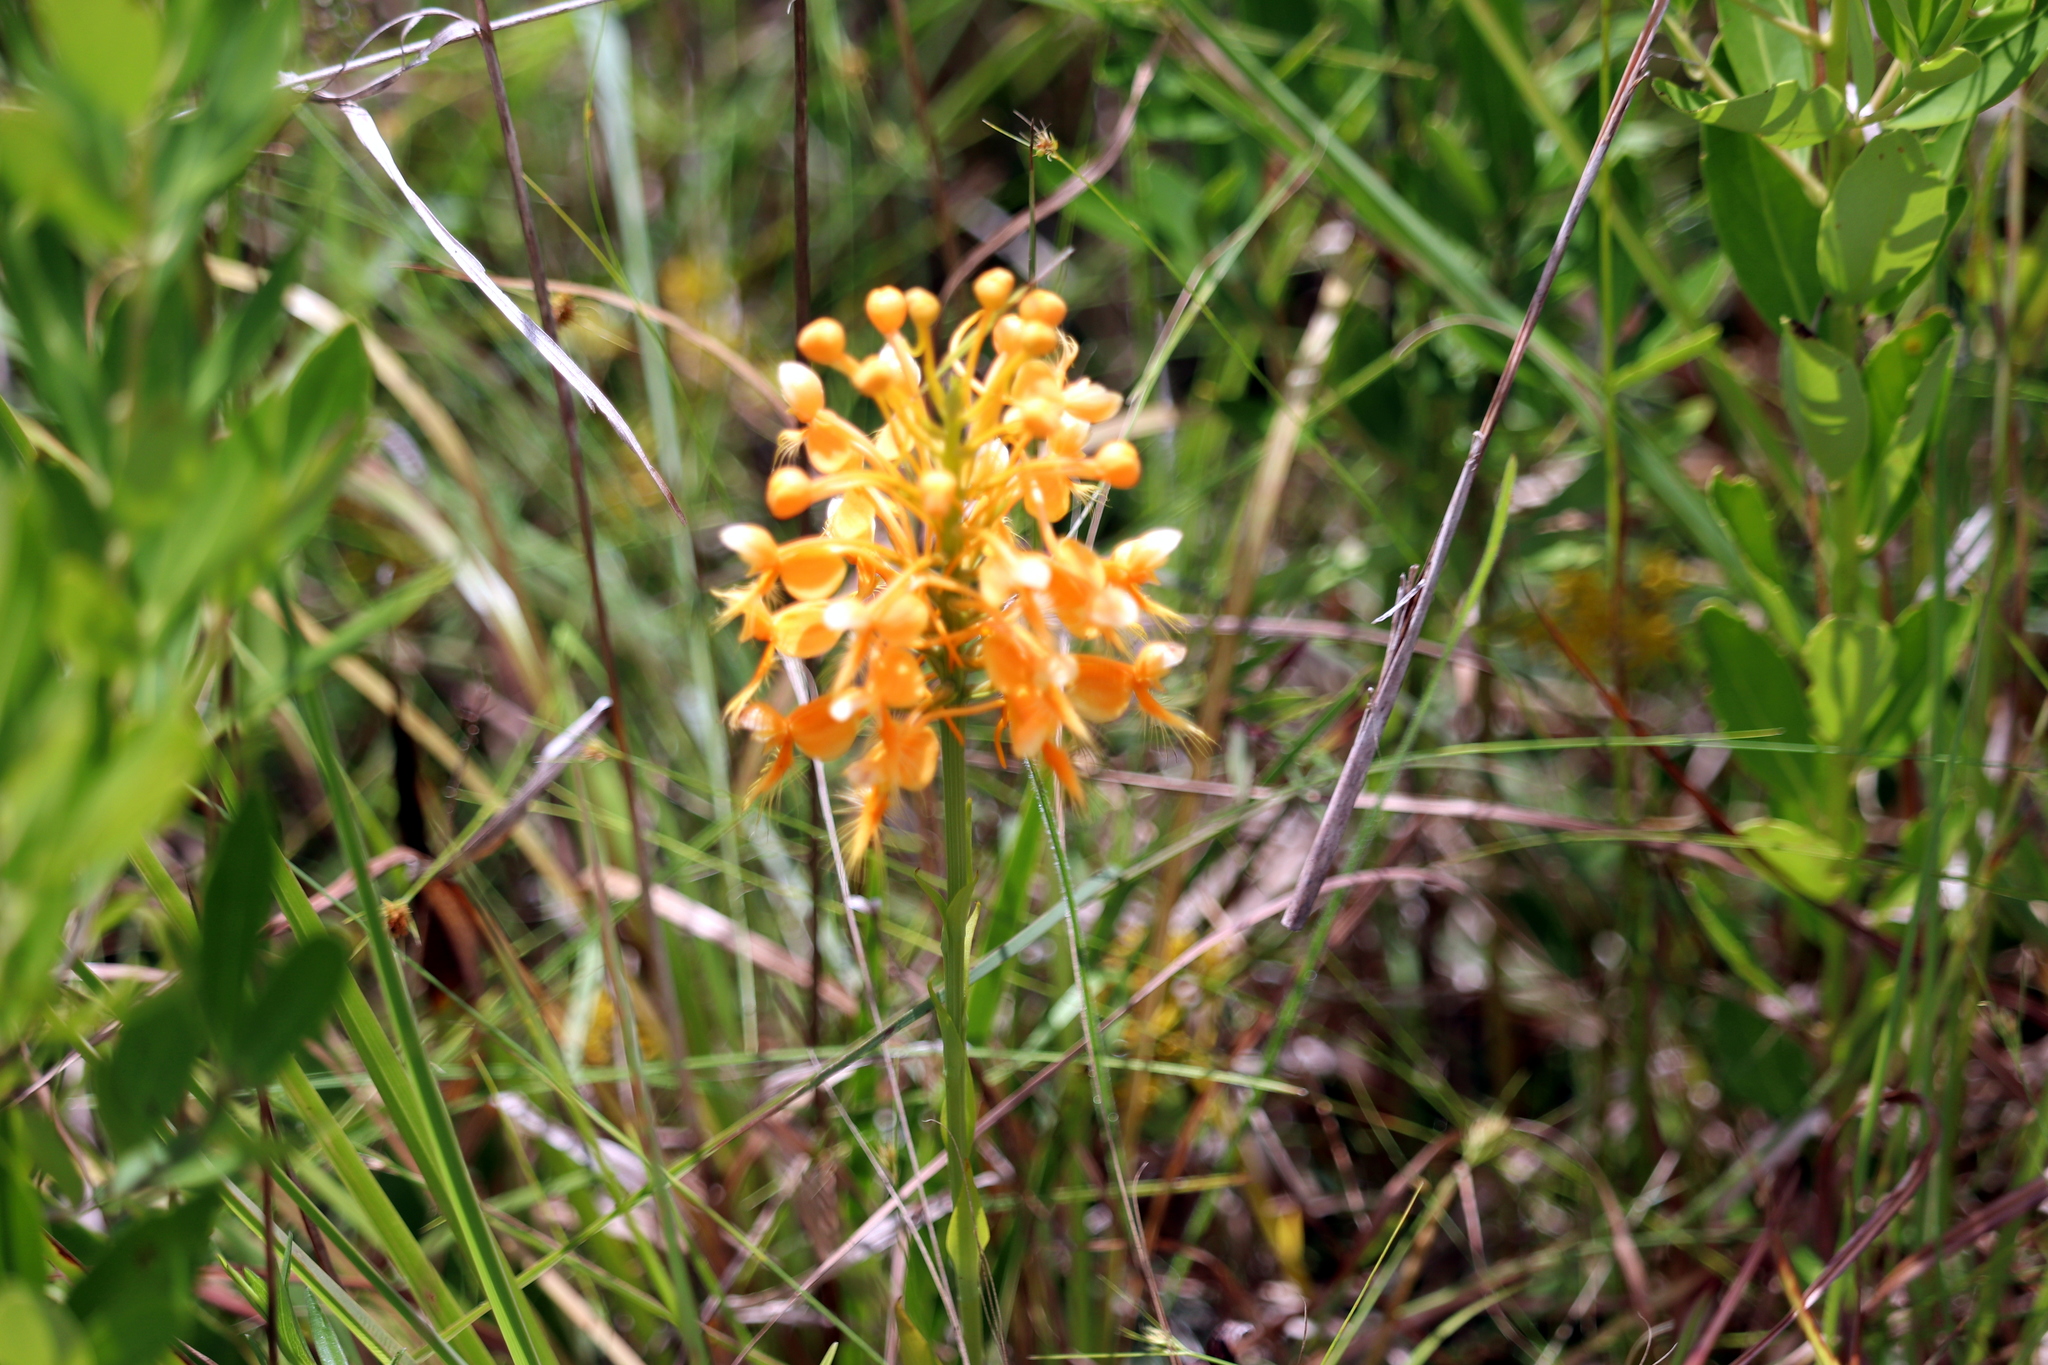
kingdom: Plantae
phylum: Tracheophyta
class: Liliopsida
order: Asparagales
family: Orchidaceae
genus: Platanthera
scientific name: Platanthera ciliaris
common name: Yellow fringed orchid
